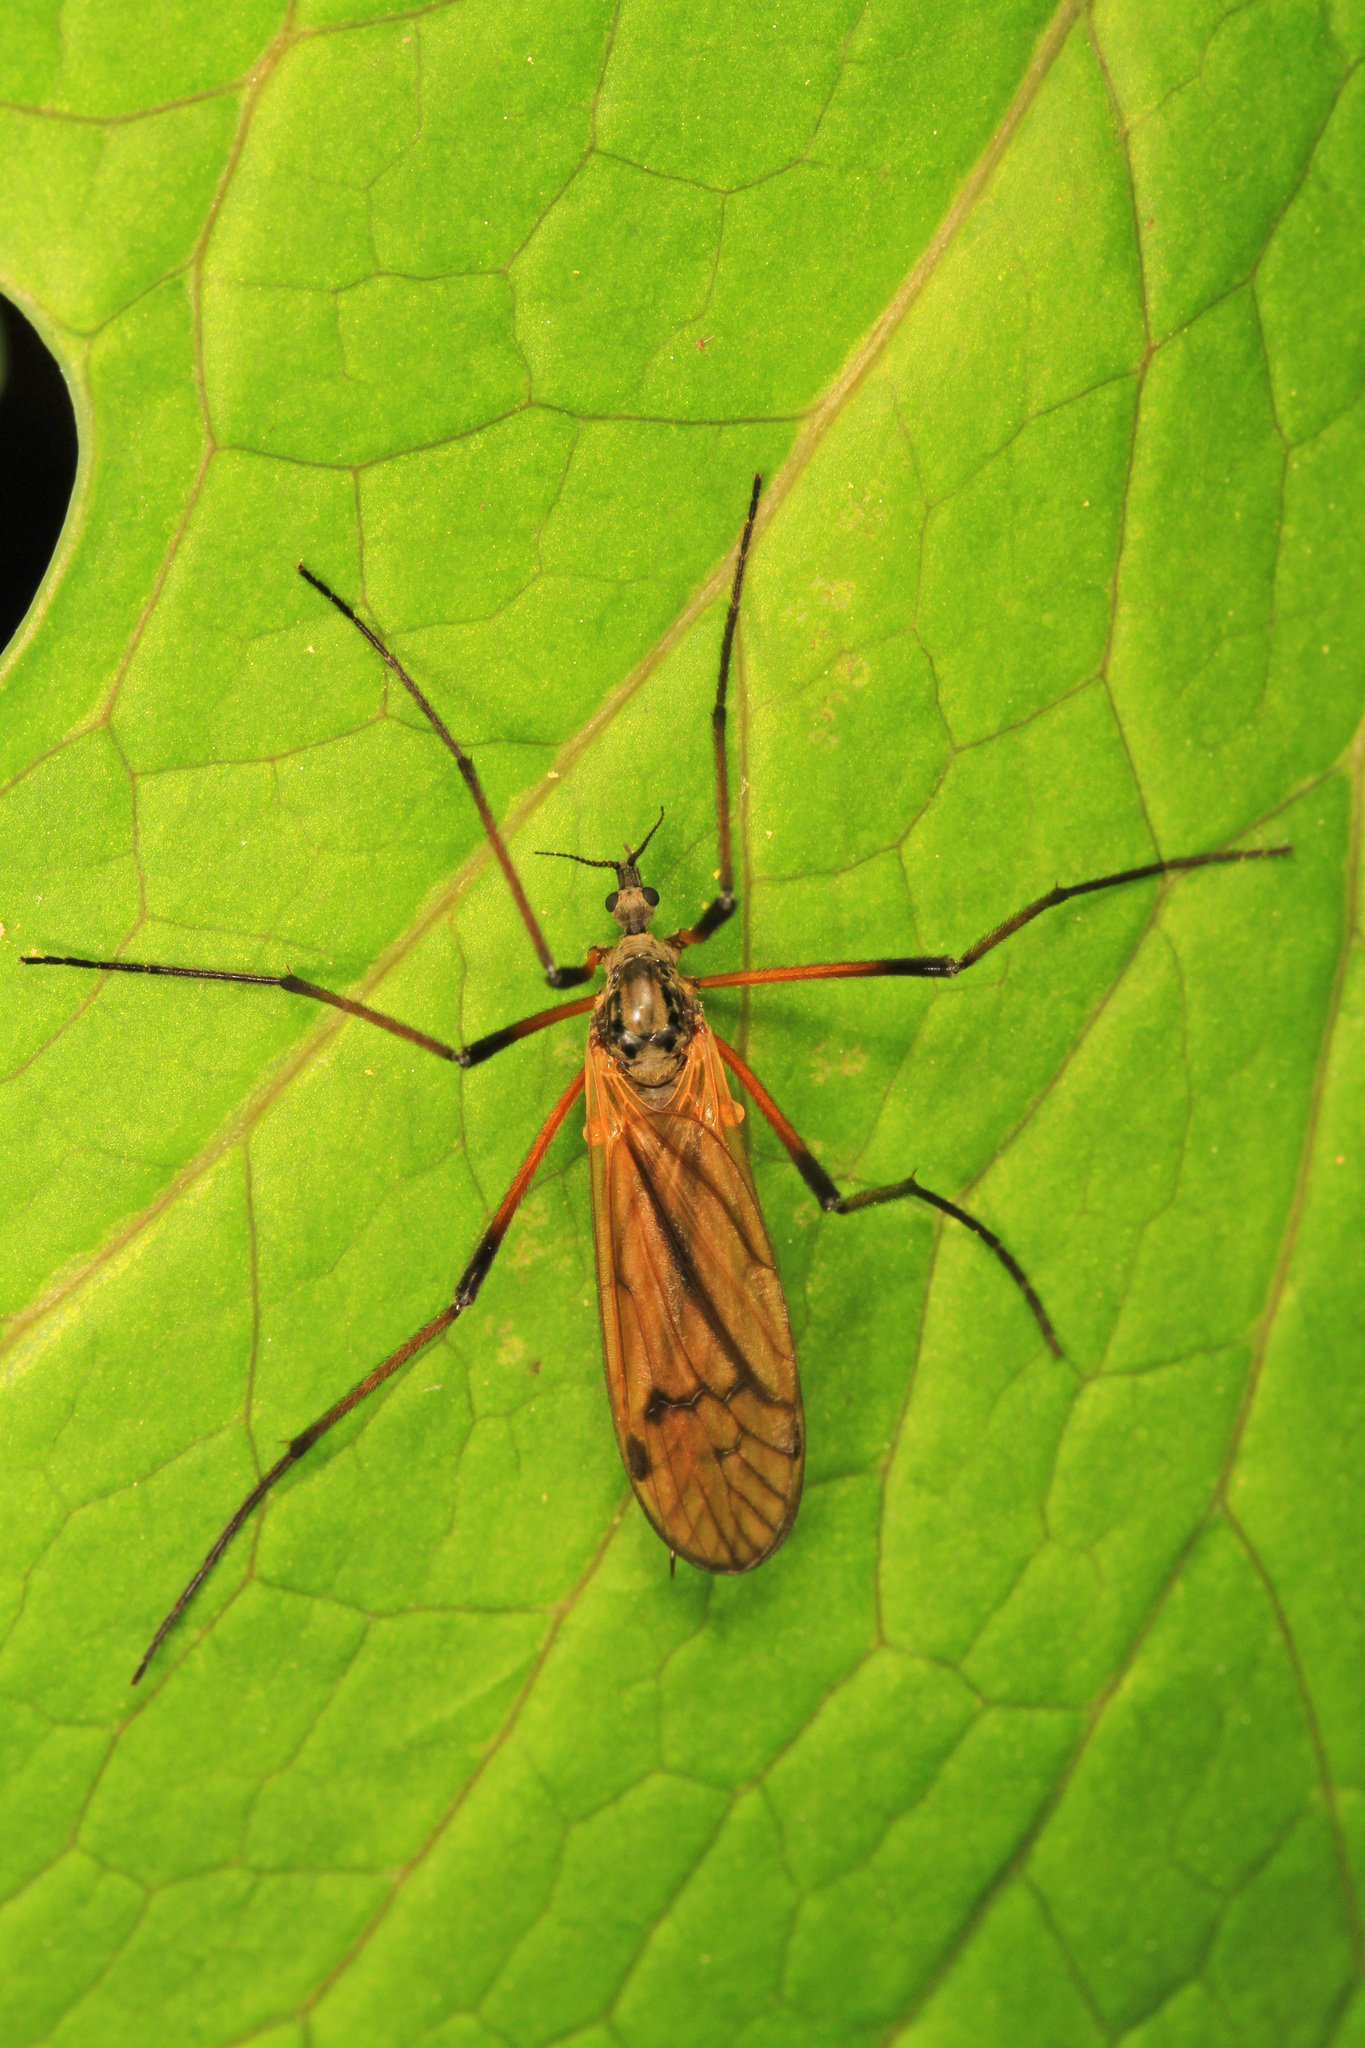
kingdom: Animalia
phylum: Arthropoda
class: Insecta
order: Diptera
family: Limoniidae
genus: Prionolabis
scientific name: Prionolabis rufibasis
